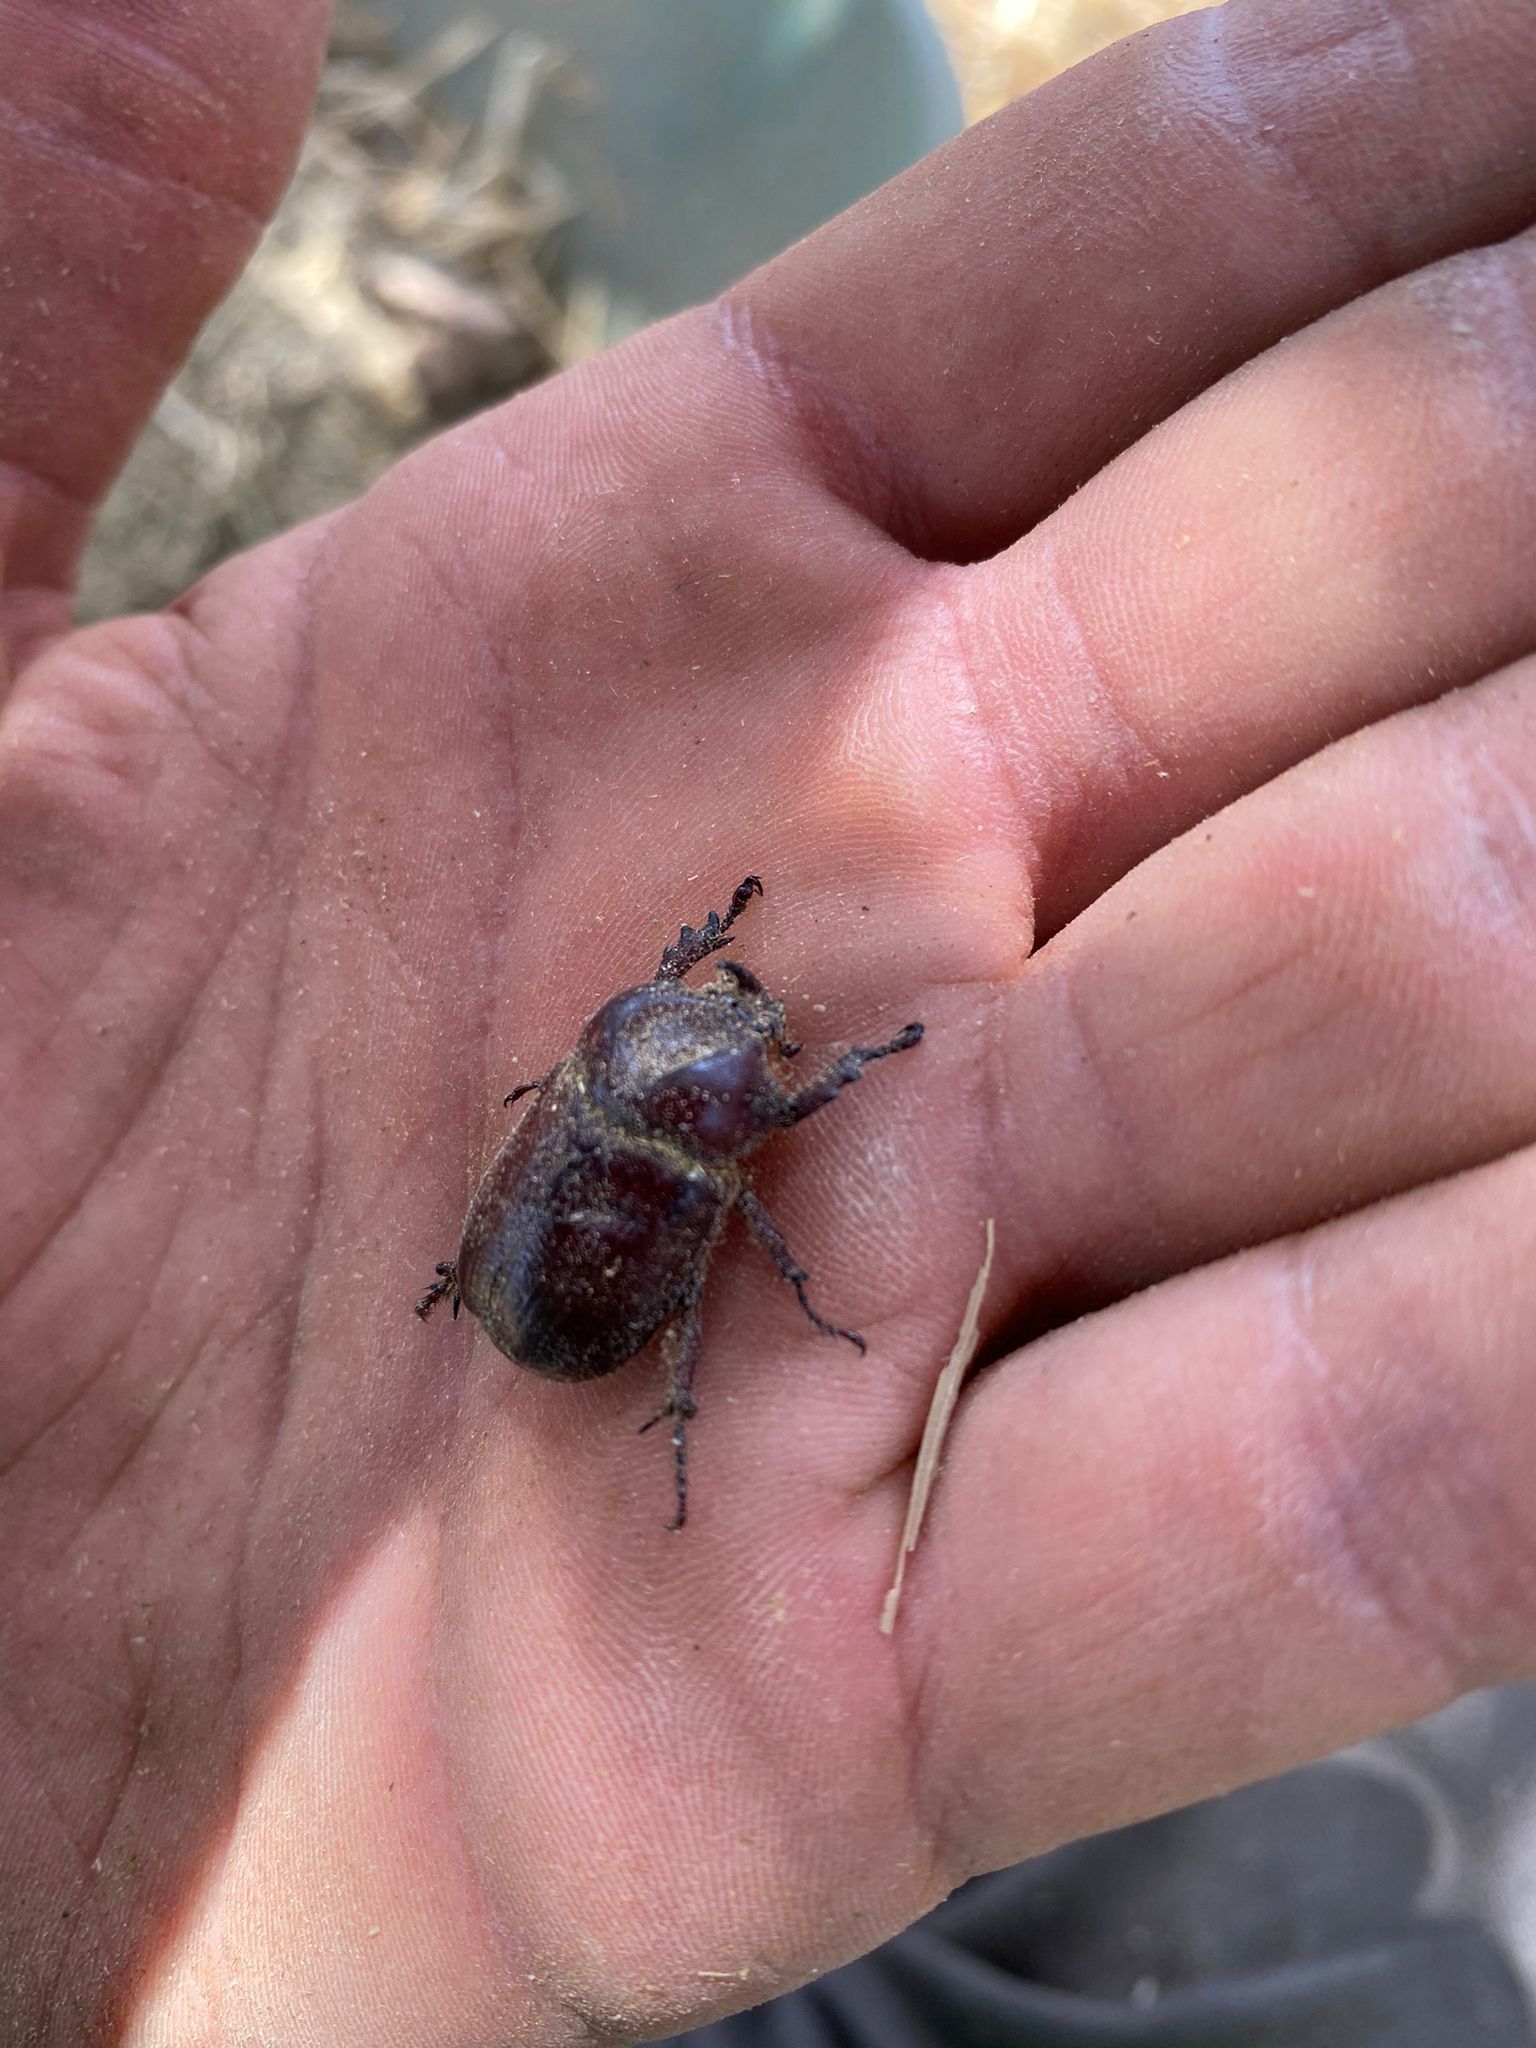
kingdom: Animalia
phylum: Arthropoda
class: Insecta
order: Coleoptera
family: Scarabaeidae
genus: Phyllognathus
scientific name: Phyllognathus excavatus
